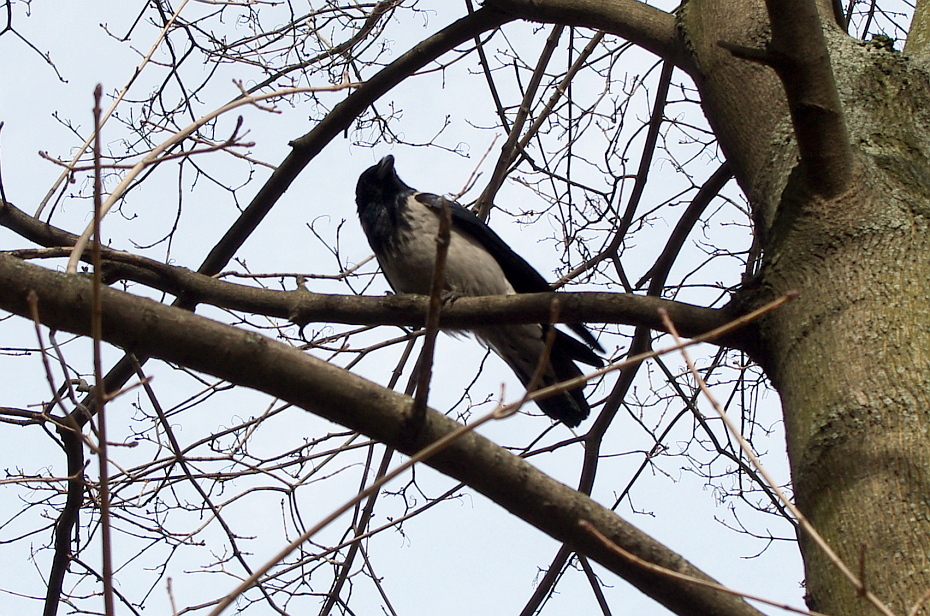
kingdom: Animalia
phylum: Chordata
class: Aves
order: Passeriformes
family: Corvidae
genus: Corvus
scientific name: Corvus cornix
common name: Hooded crow
